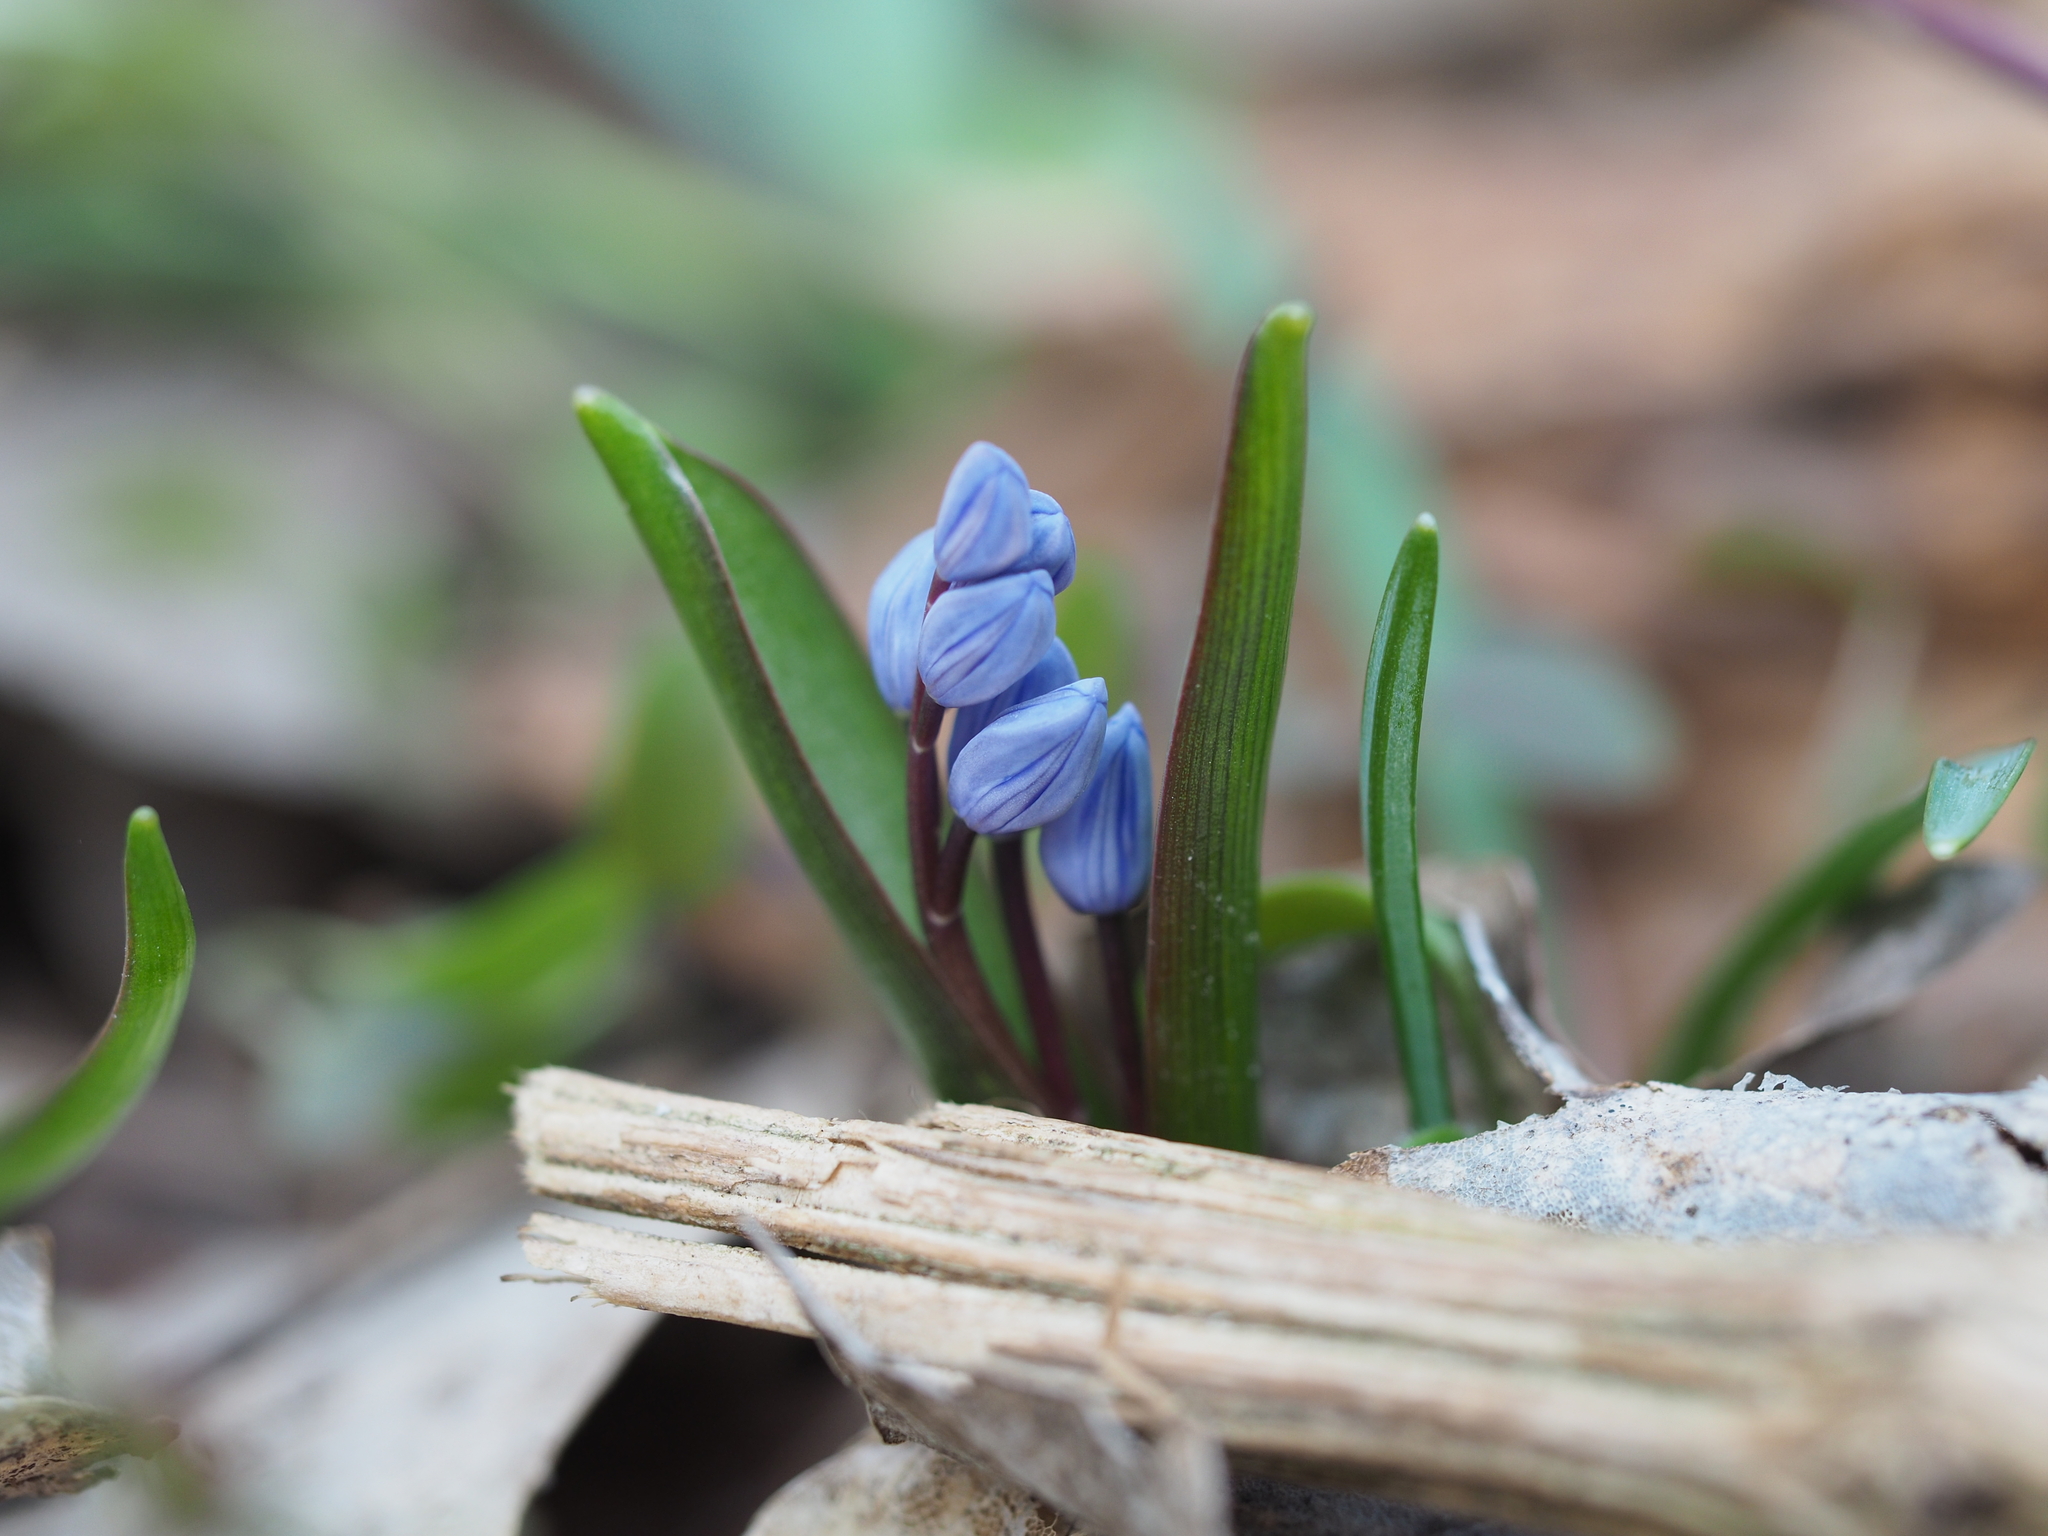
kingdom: Plantae
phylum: Tracheophyta
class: Liliopsida
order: Asparagales
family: Asparagaceae
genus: Scilla
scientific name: Scilla bifolia
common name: Alpine squill
